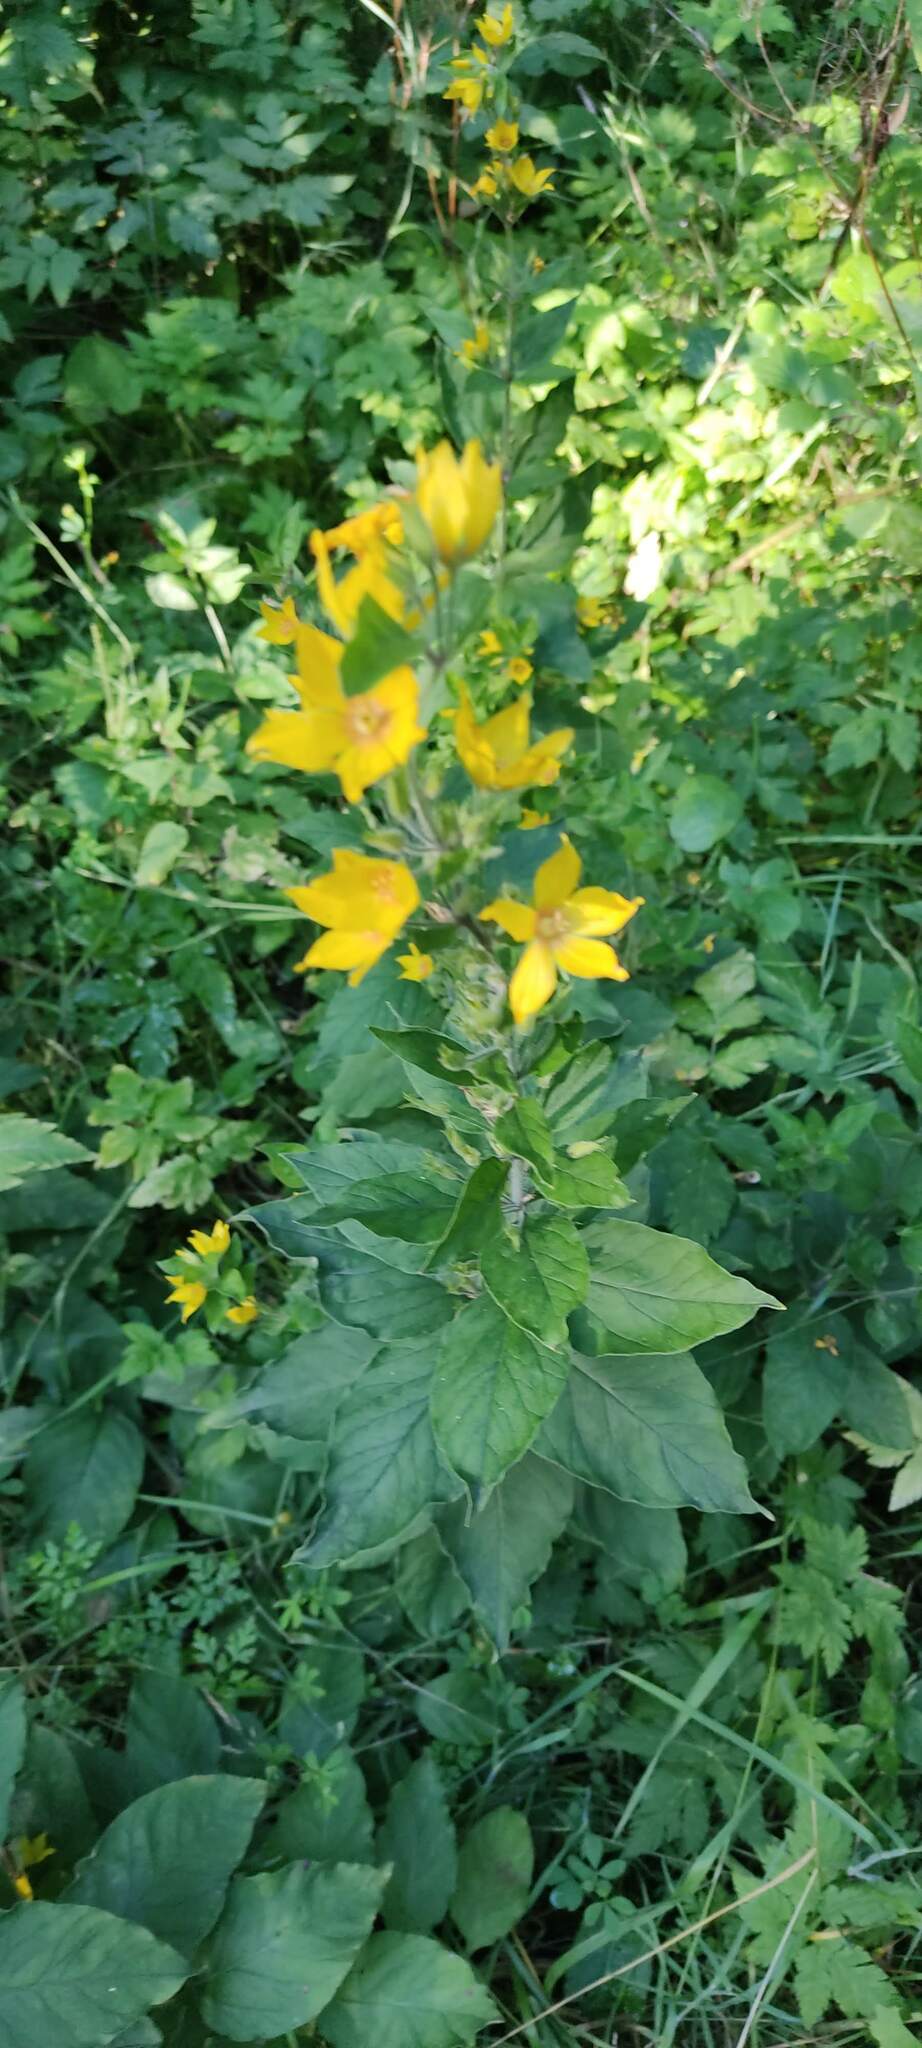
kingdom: Plantae
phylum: Tracheophyta
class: Magnoliopsida
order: Ericales
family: Primulaceae
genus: Lysimachia
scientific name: Lysimachia punctata
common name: Dotted loosestrife
